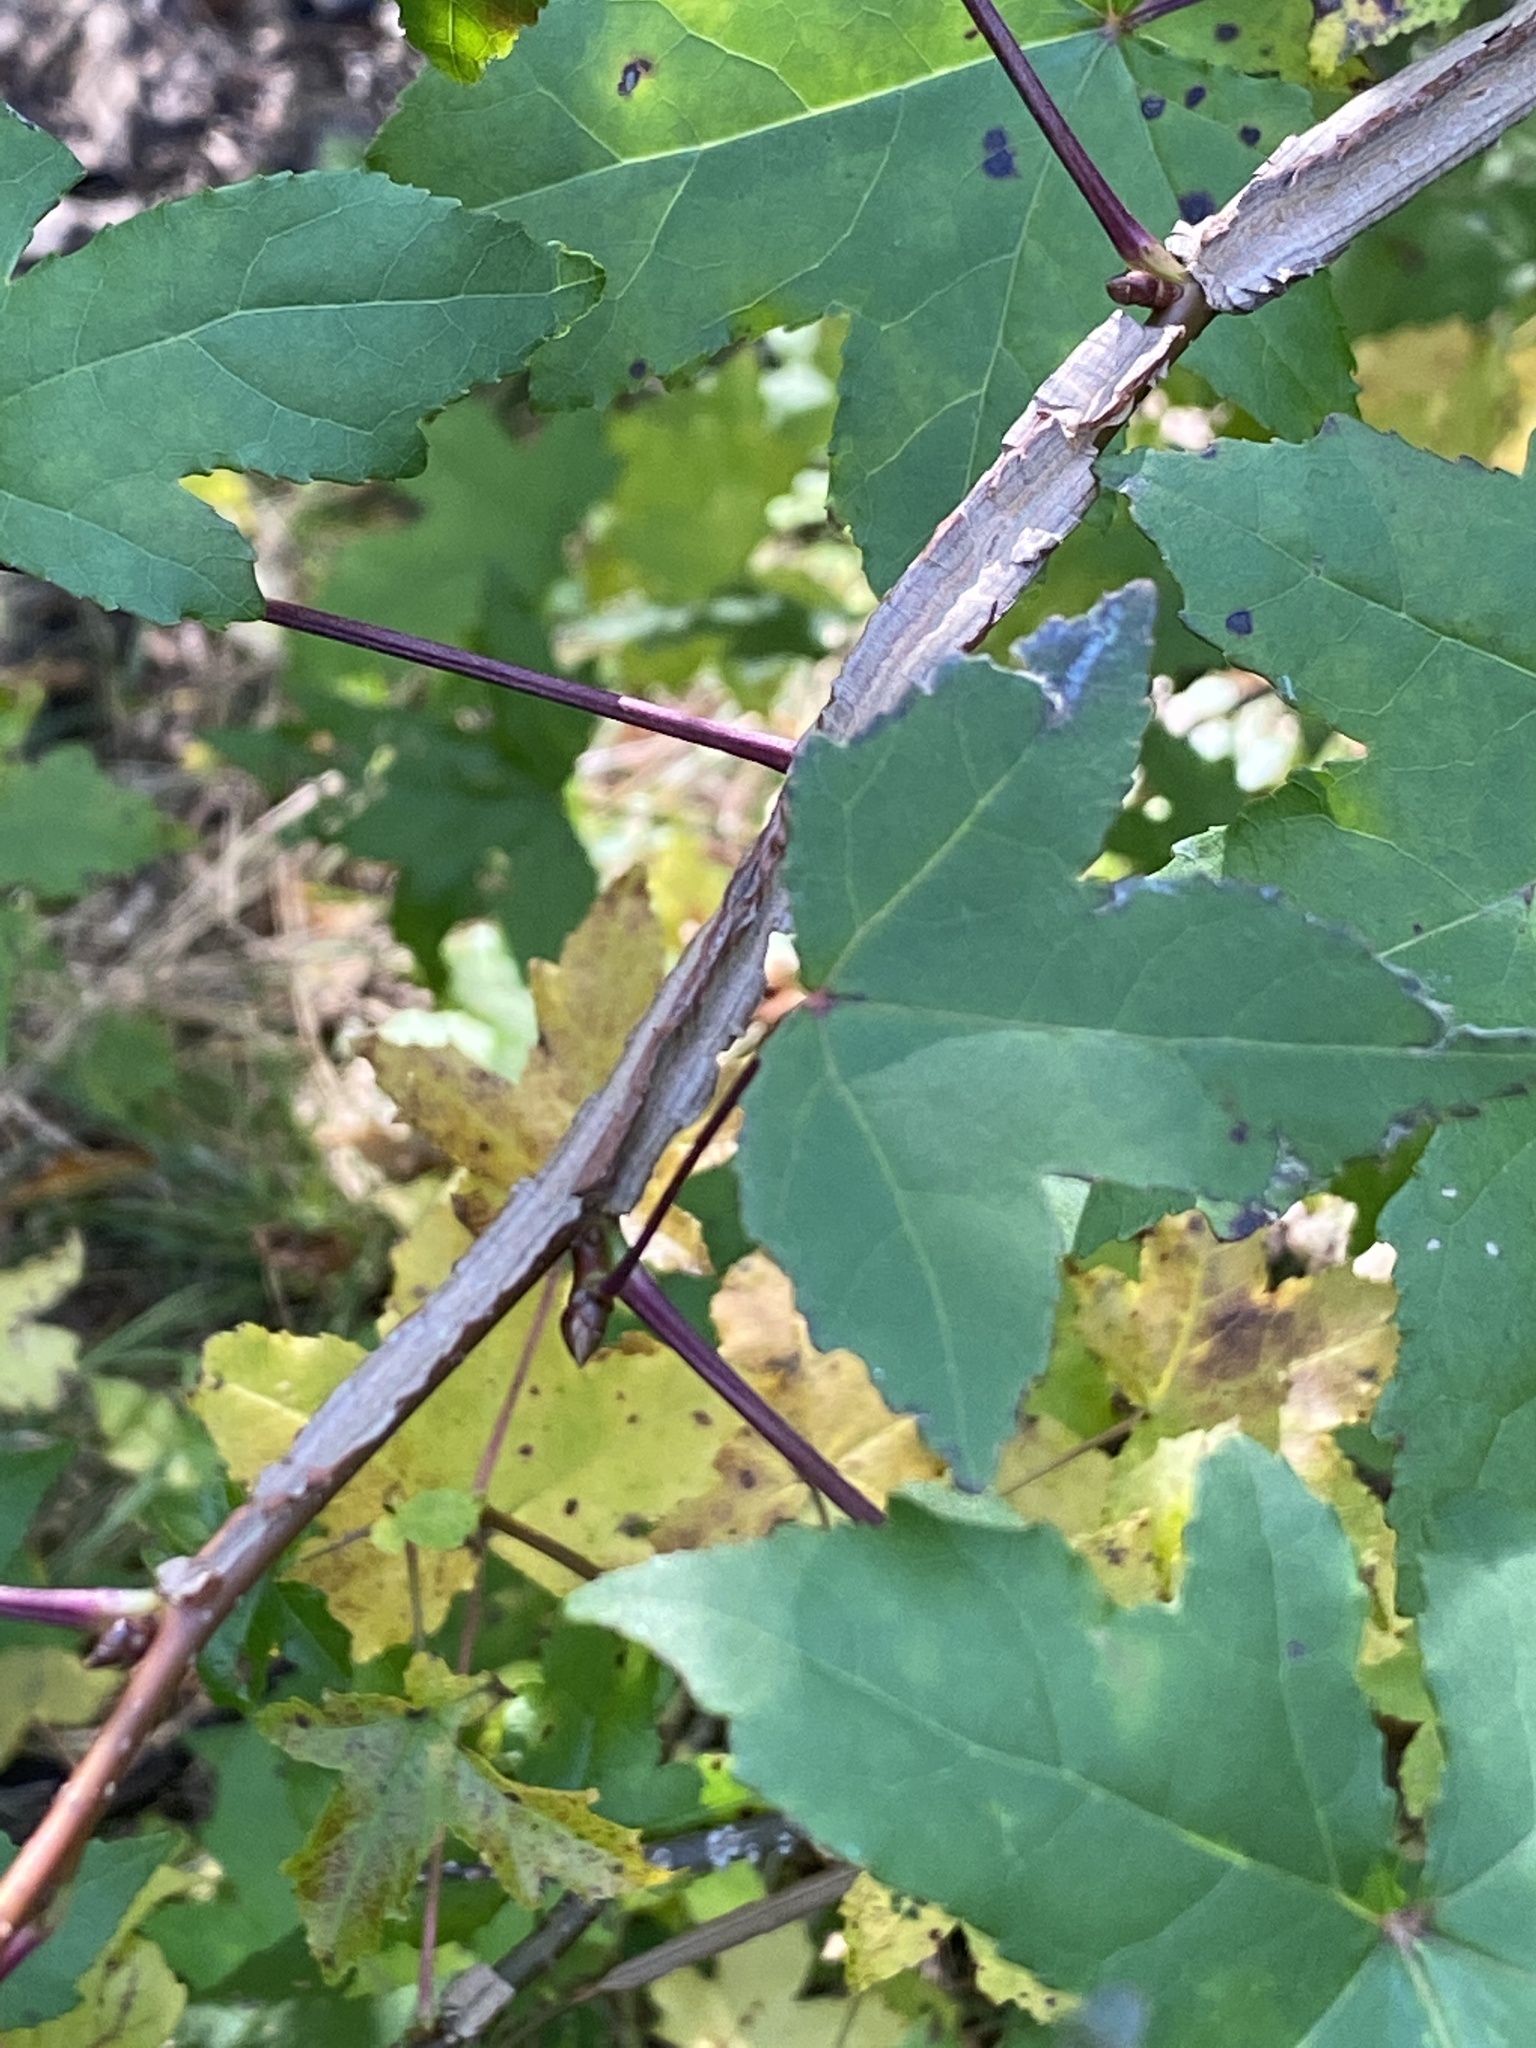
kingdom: Plantae
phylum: Tracheophyta
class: Magnoliopsida
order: Saxifragales
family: Altingiaceae
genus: Liquidambar
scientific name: Liquidambar styraciflua
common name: Sweet gum
